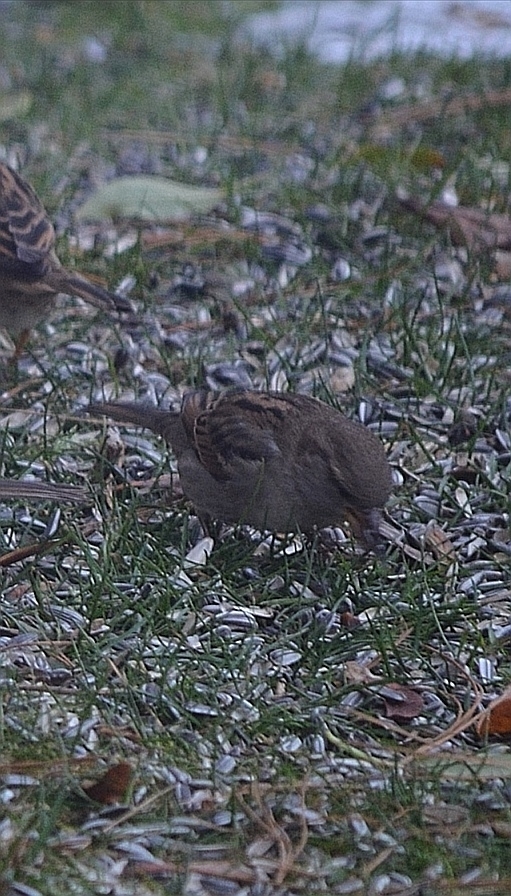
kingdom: Animalia
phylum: Chordata
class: Aves
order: Passeriformes
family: Passeridae
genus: Passer
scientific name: Passer domesticus
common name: House sparrow
